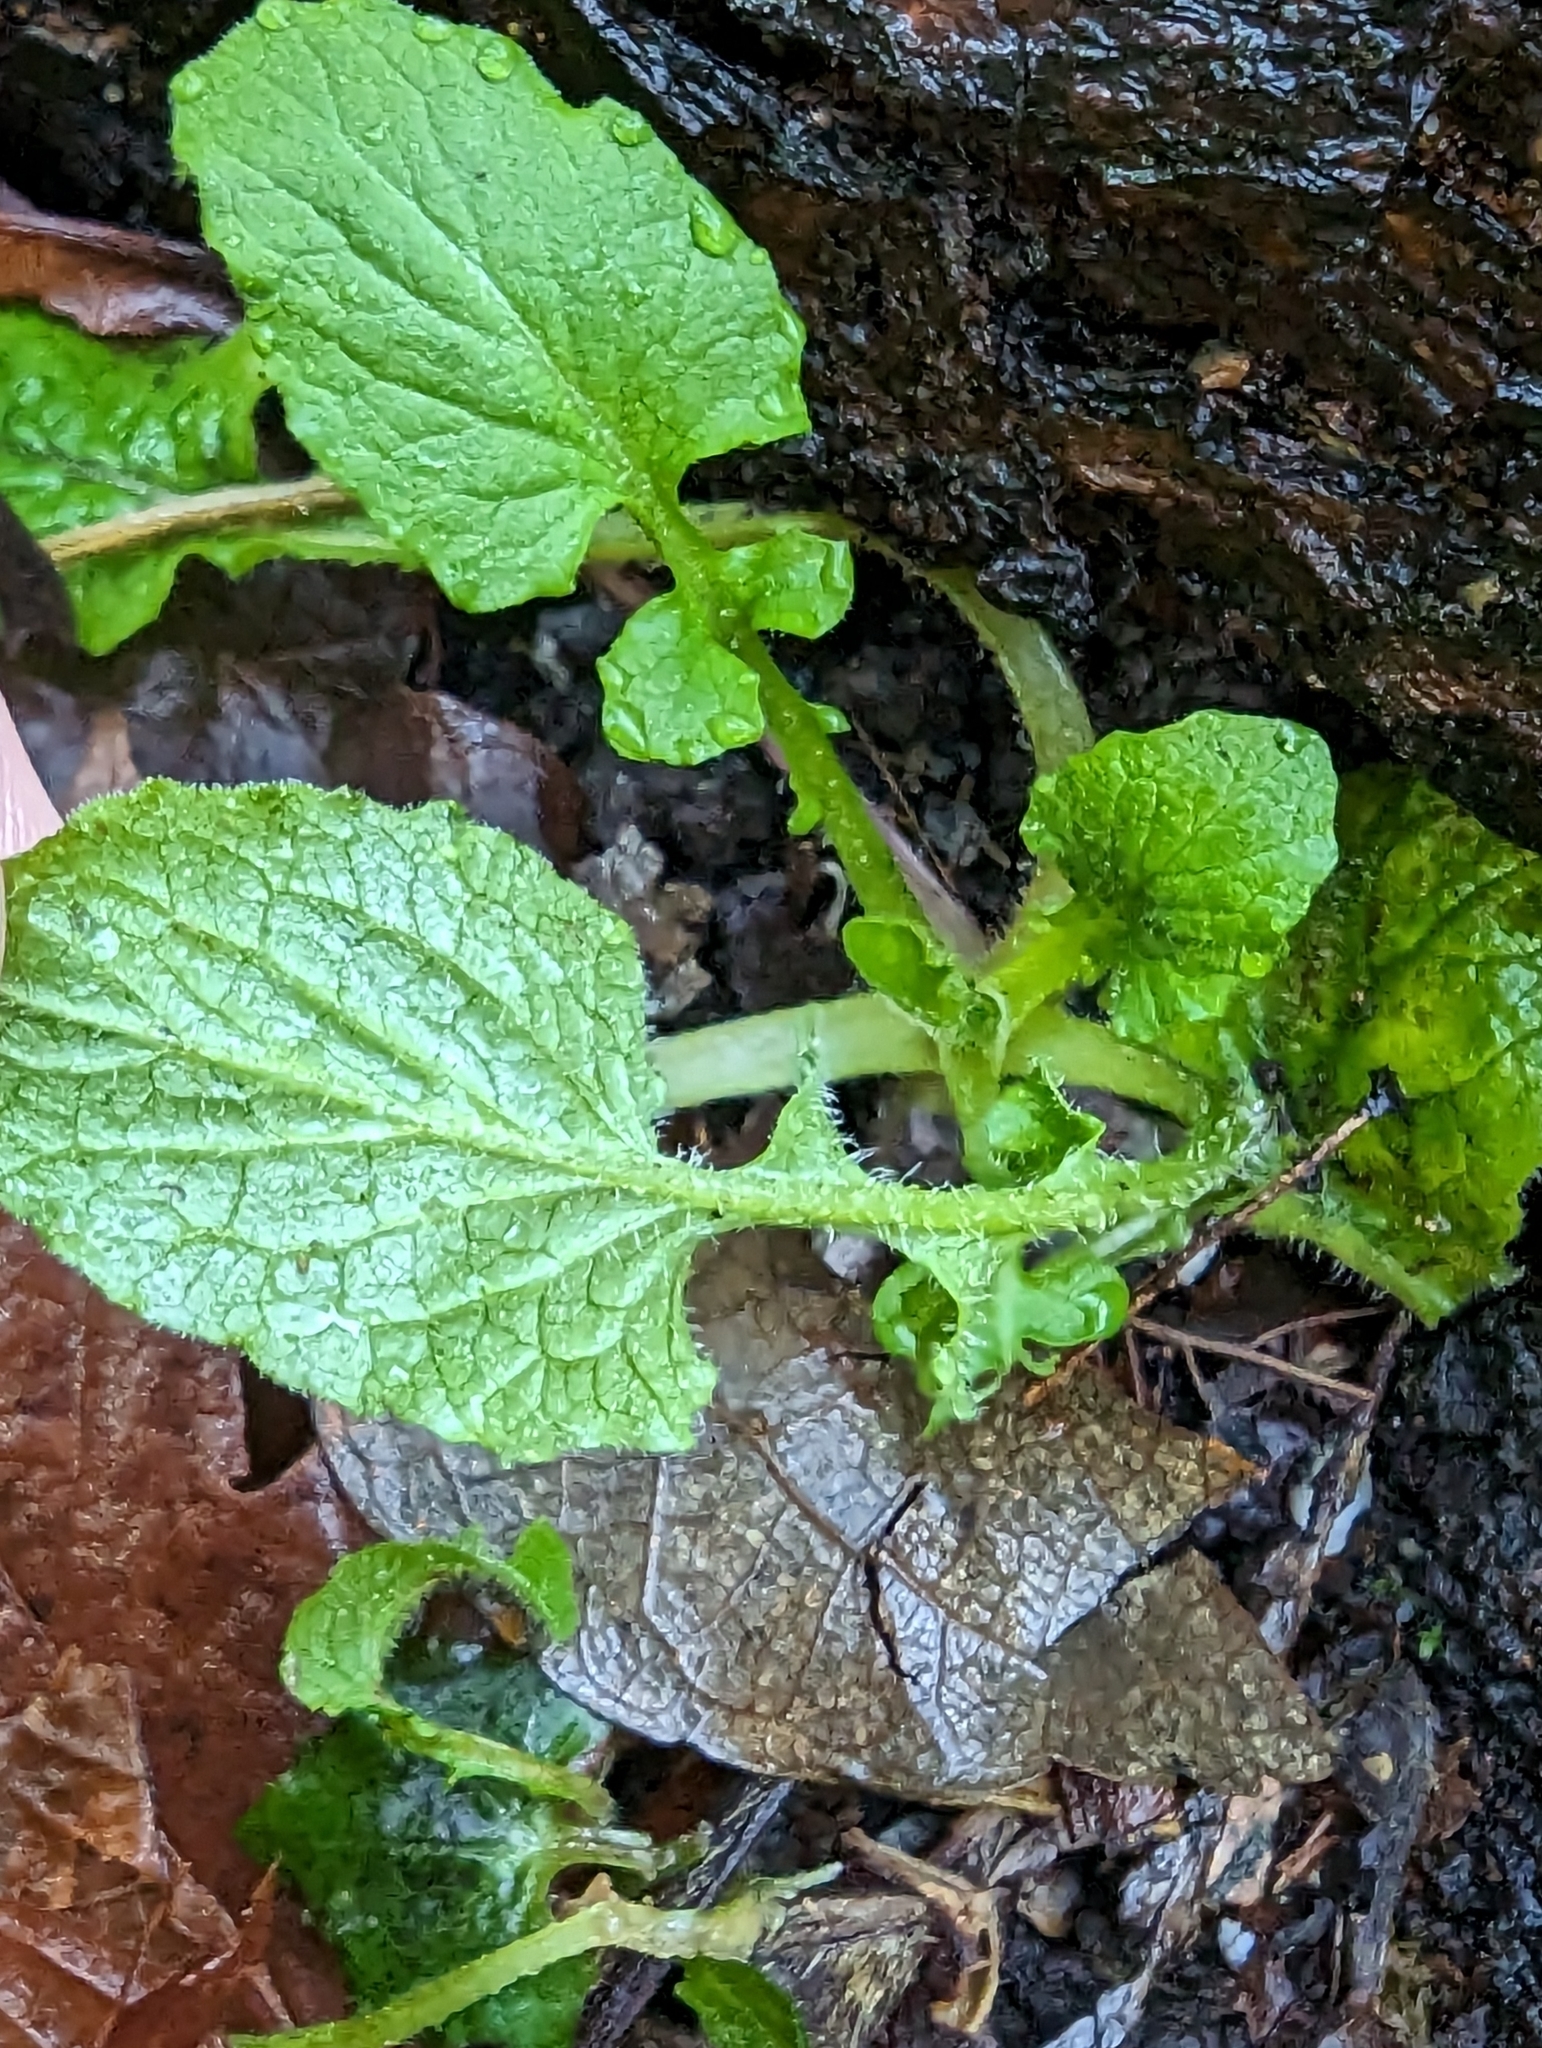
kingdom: Plantae
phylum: Tracheophyta
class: Magnoliopsida
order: Asterales
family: Asteraceae
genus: Lapsana
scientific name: Lapsana communis
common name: Nipplewort
